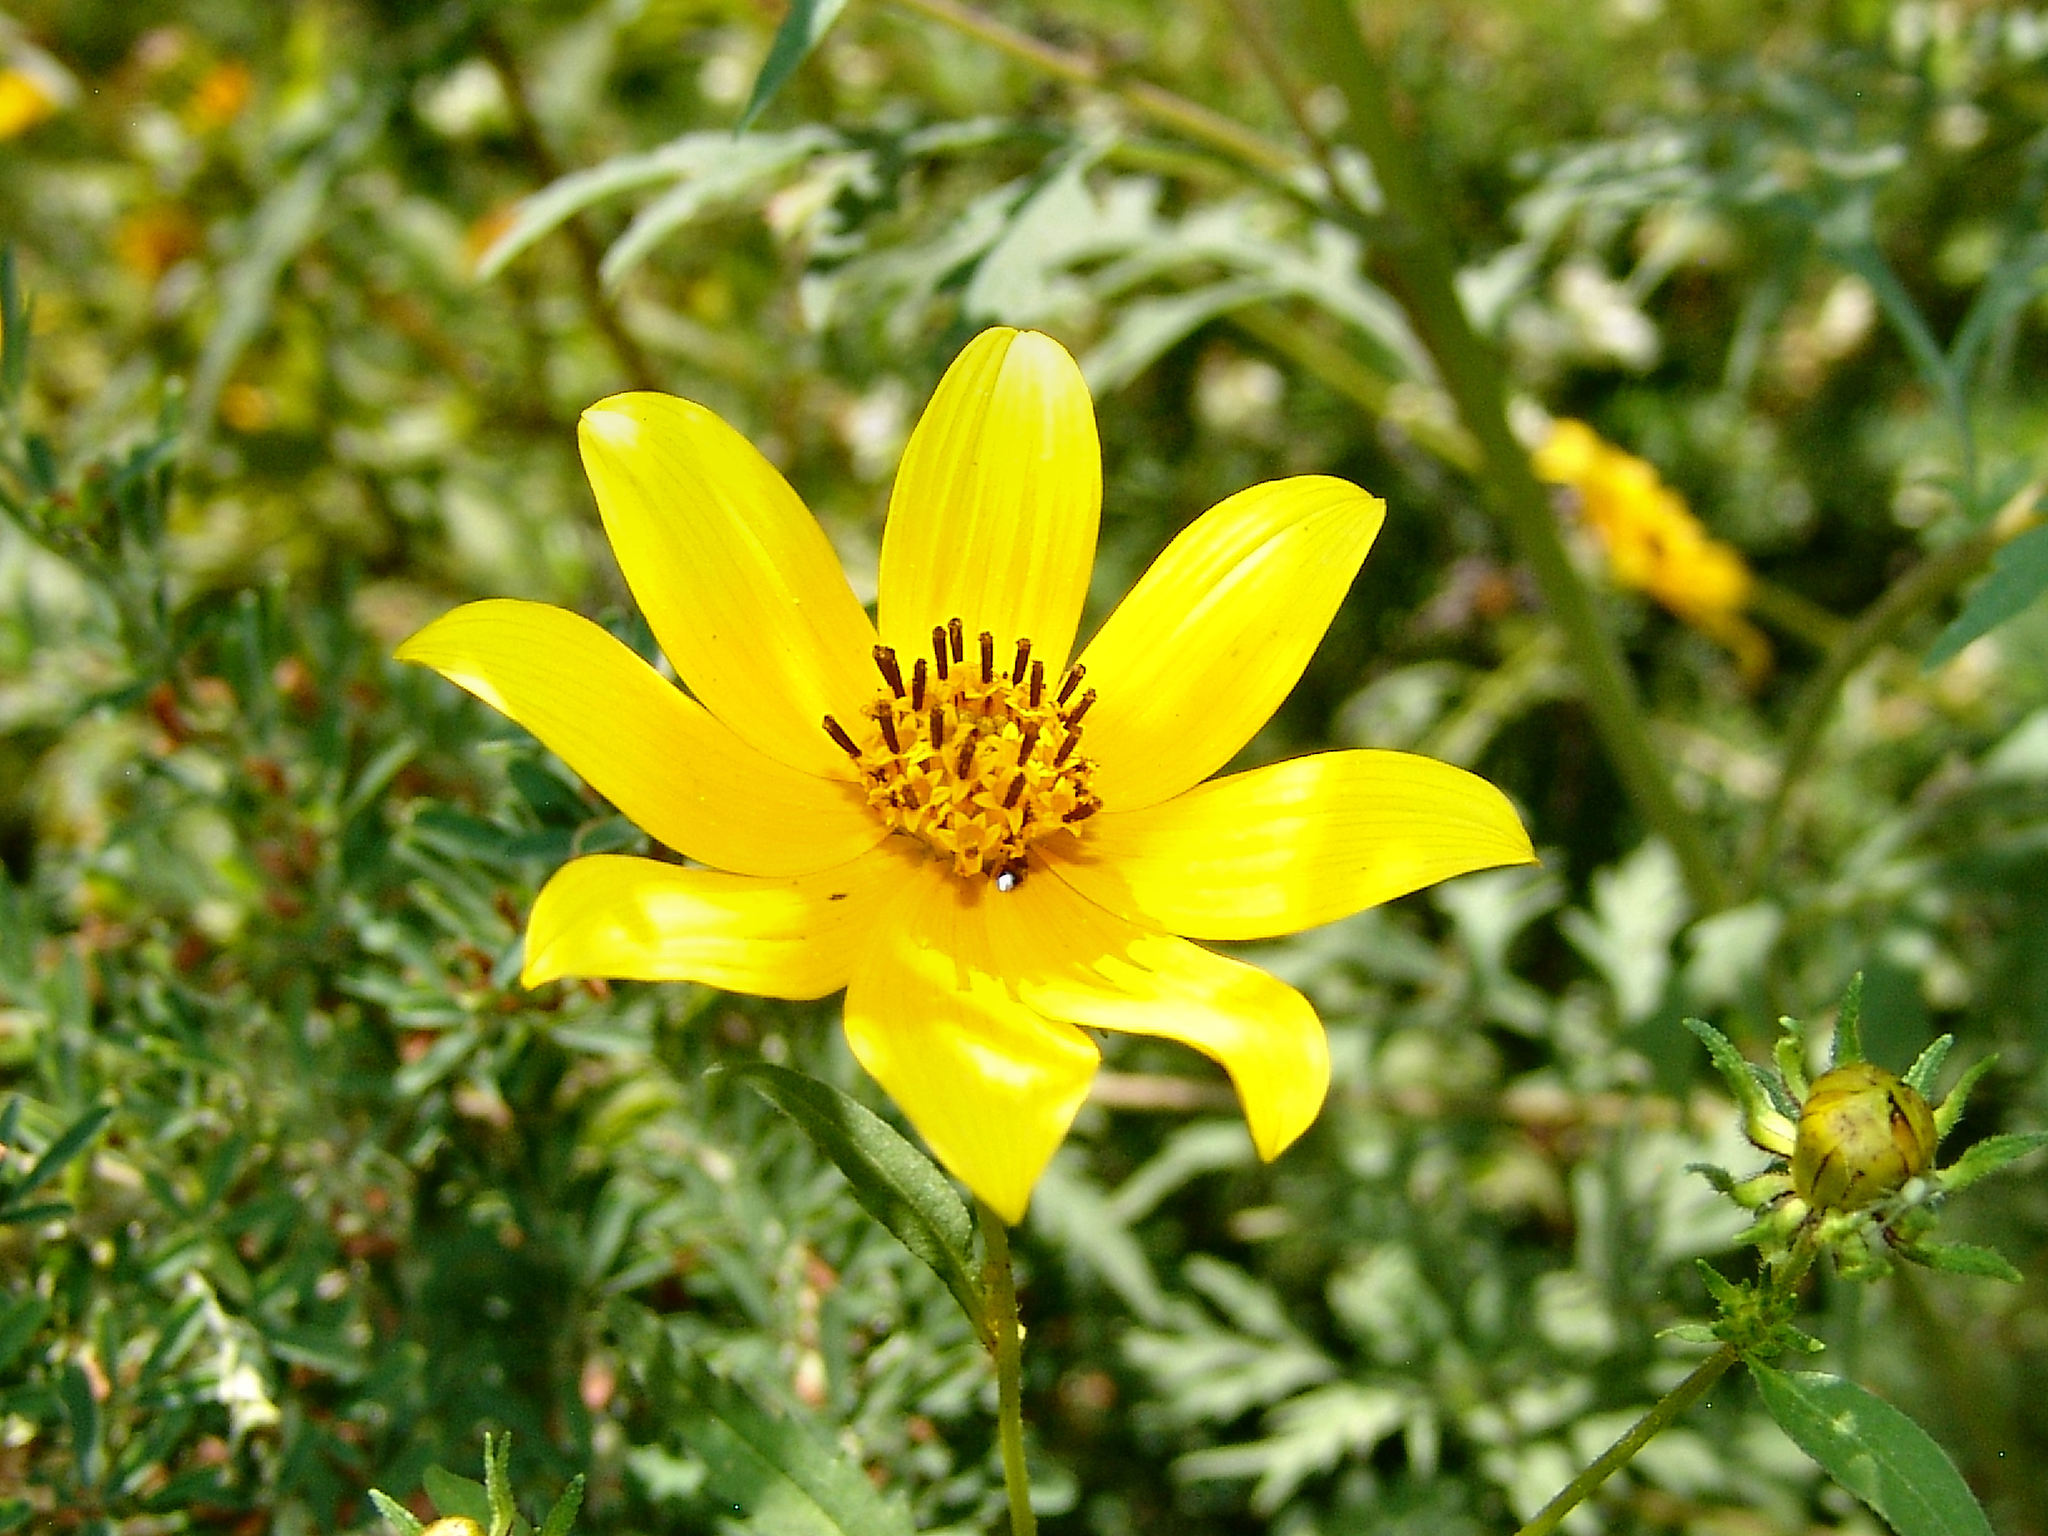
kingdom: Plantae
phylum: Tracheophyta
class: Magnoliopsida
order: Asterales
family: Asteraceae
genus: Bidens
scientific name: Bidens aristosa
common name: Western tickseed
